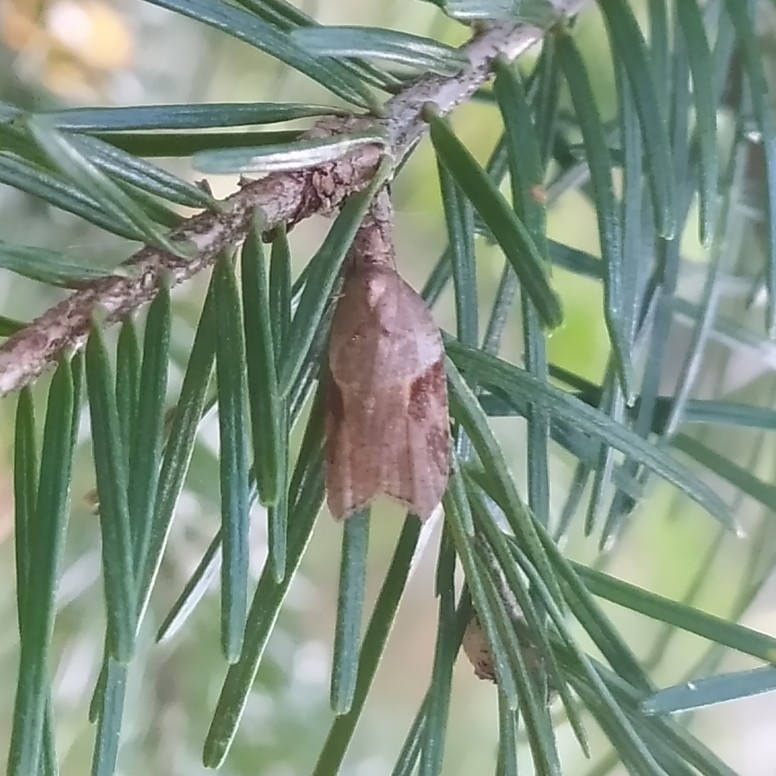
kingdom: Animalia
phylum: Arthropoda
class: Insecta
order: Lepidoptera
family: Tortricidae
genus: Acleris
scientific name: Acleris laterana
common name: Dark-triangle button
